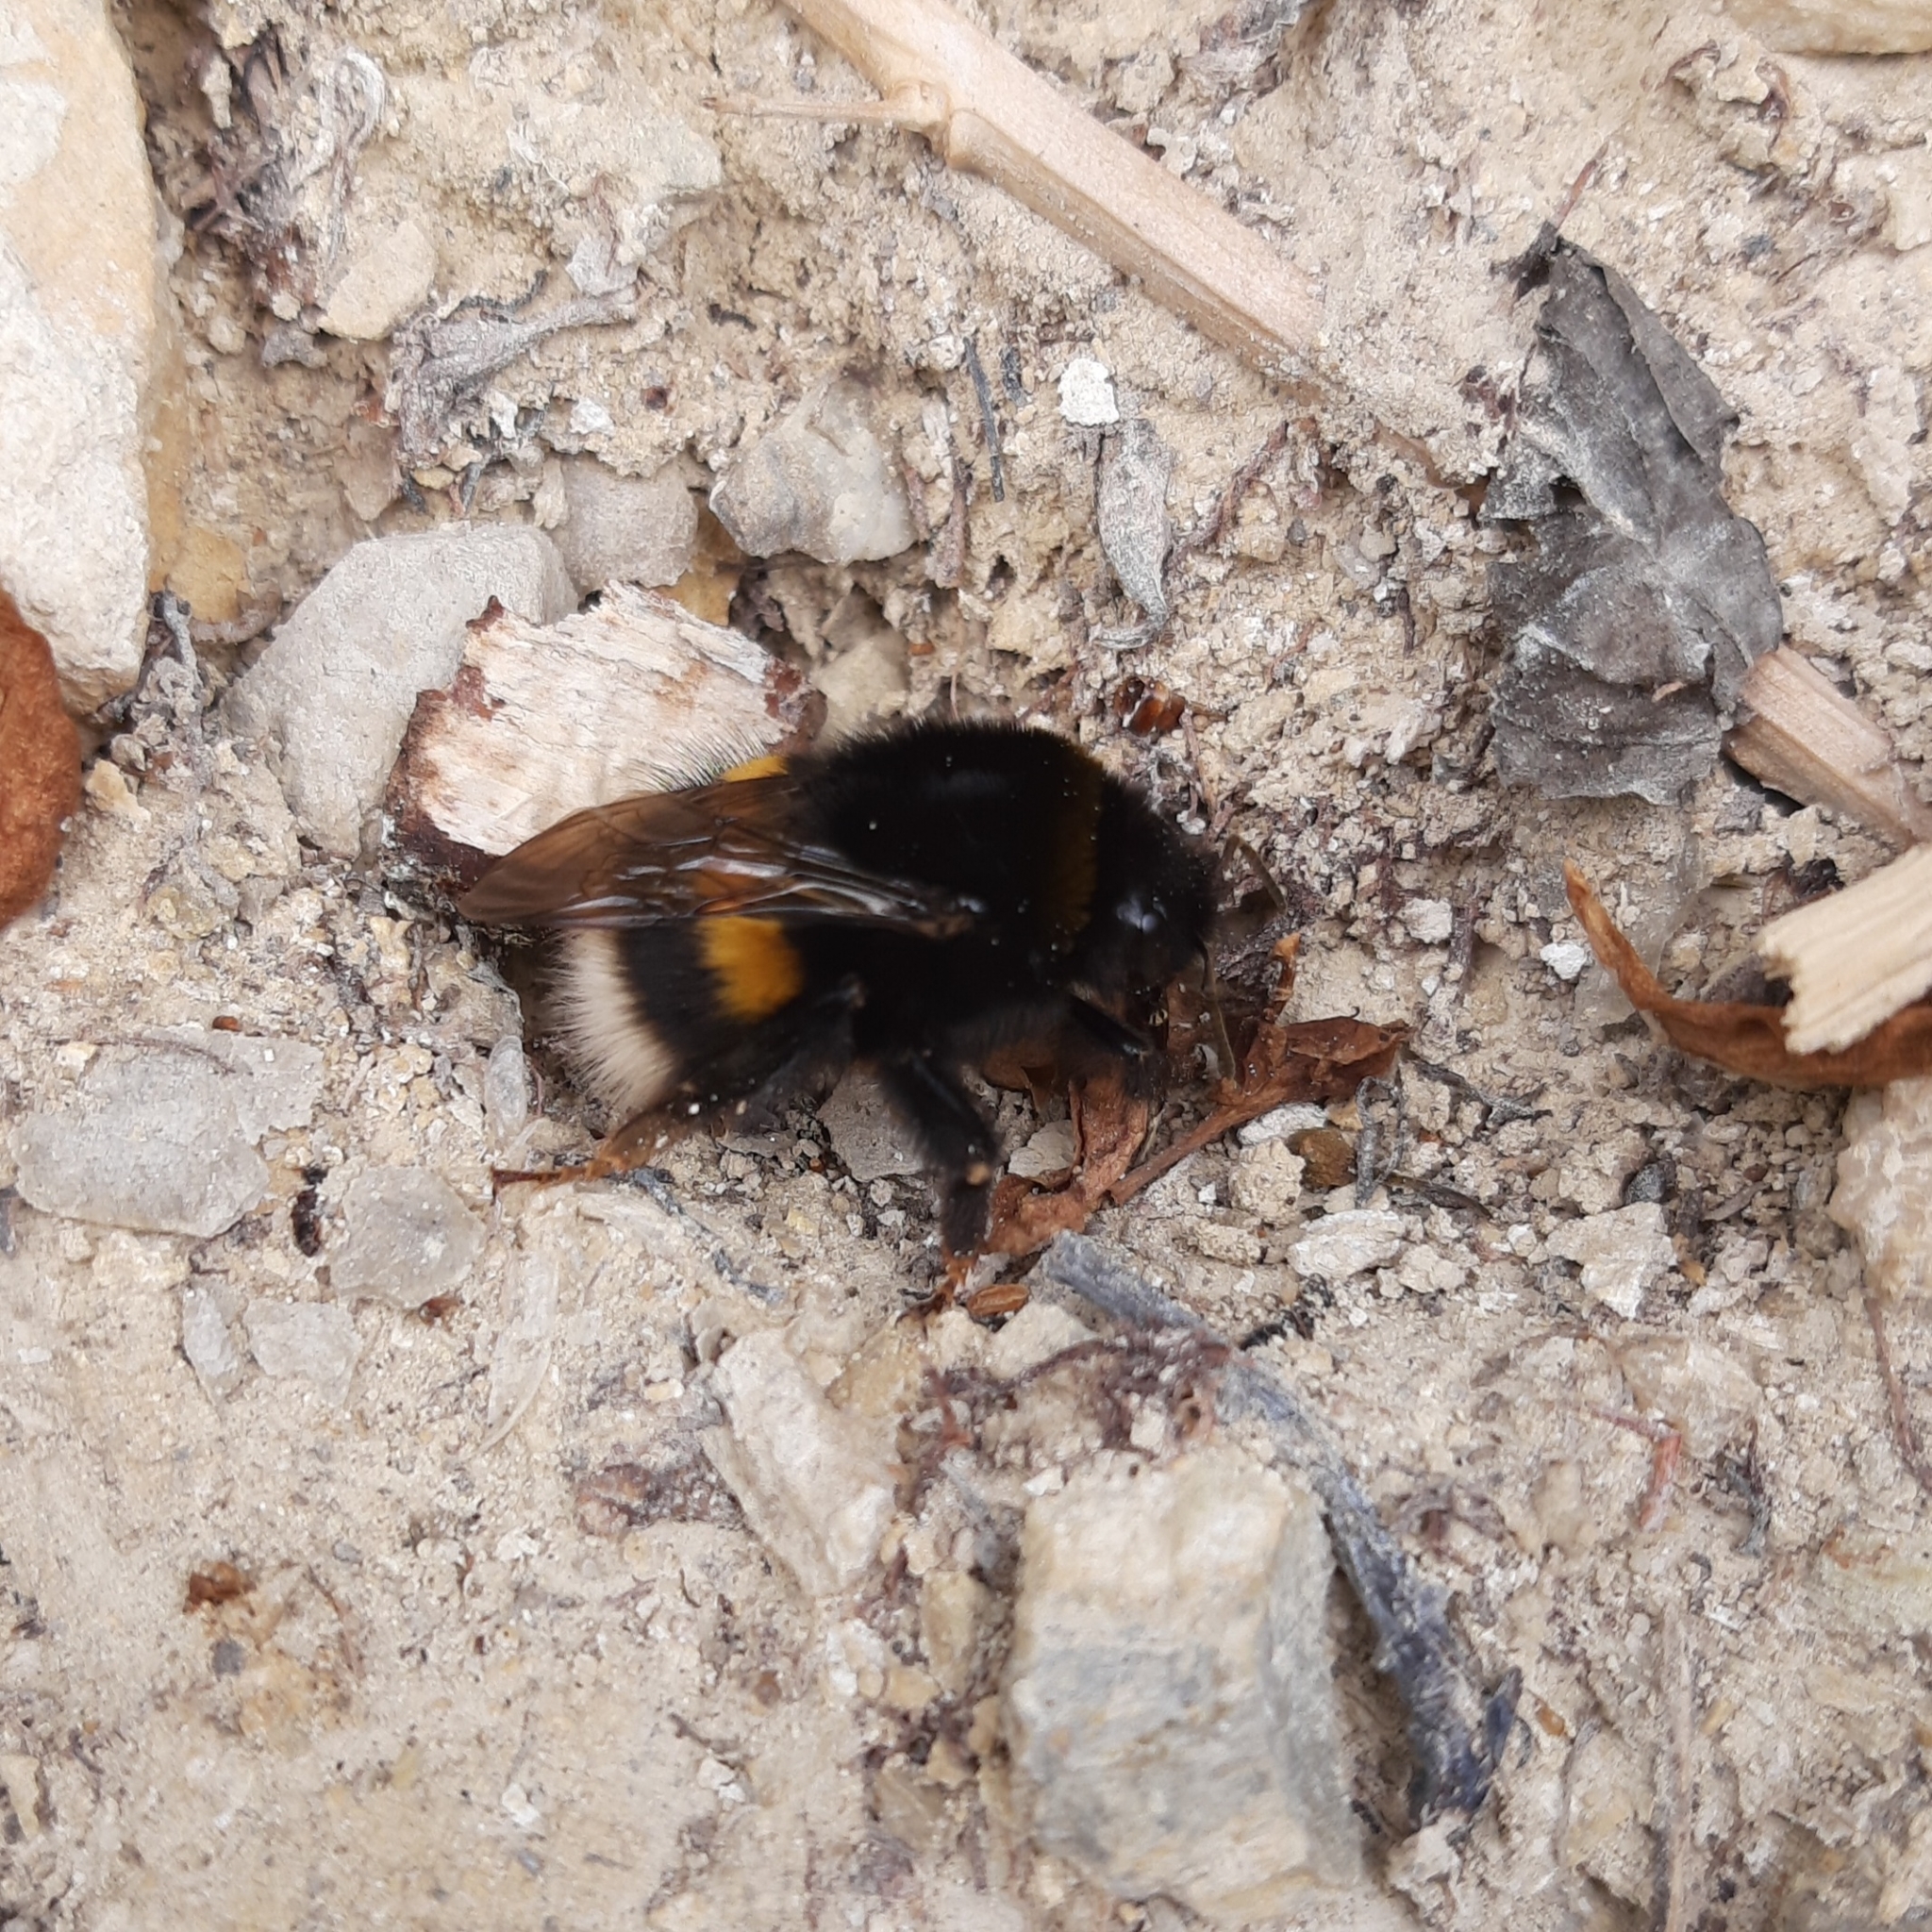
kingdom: Animalia
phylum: Arthropoda
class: Insecta
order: Hymenoptera
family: Apidae
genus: Bombus
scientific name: Bombus
